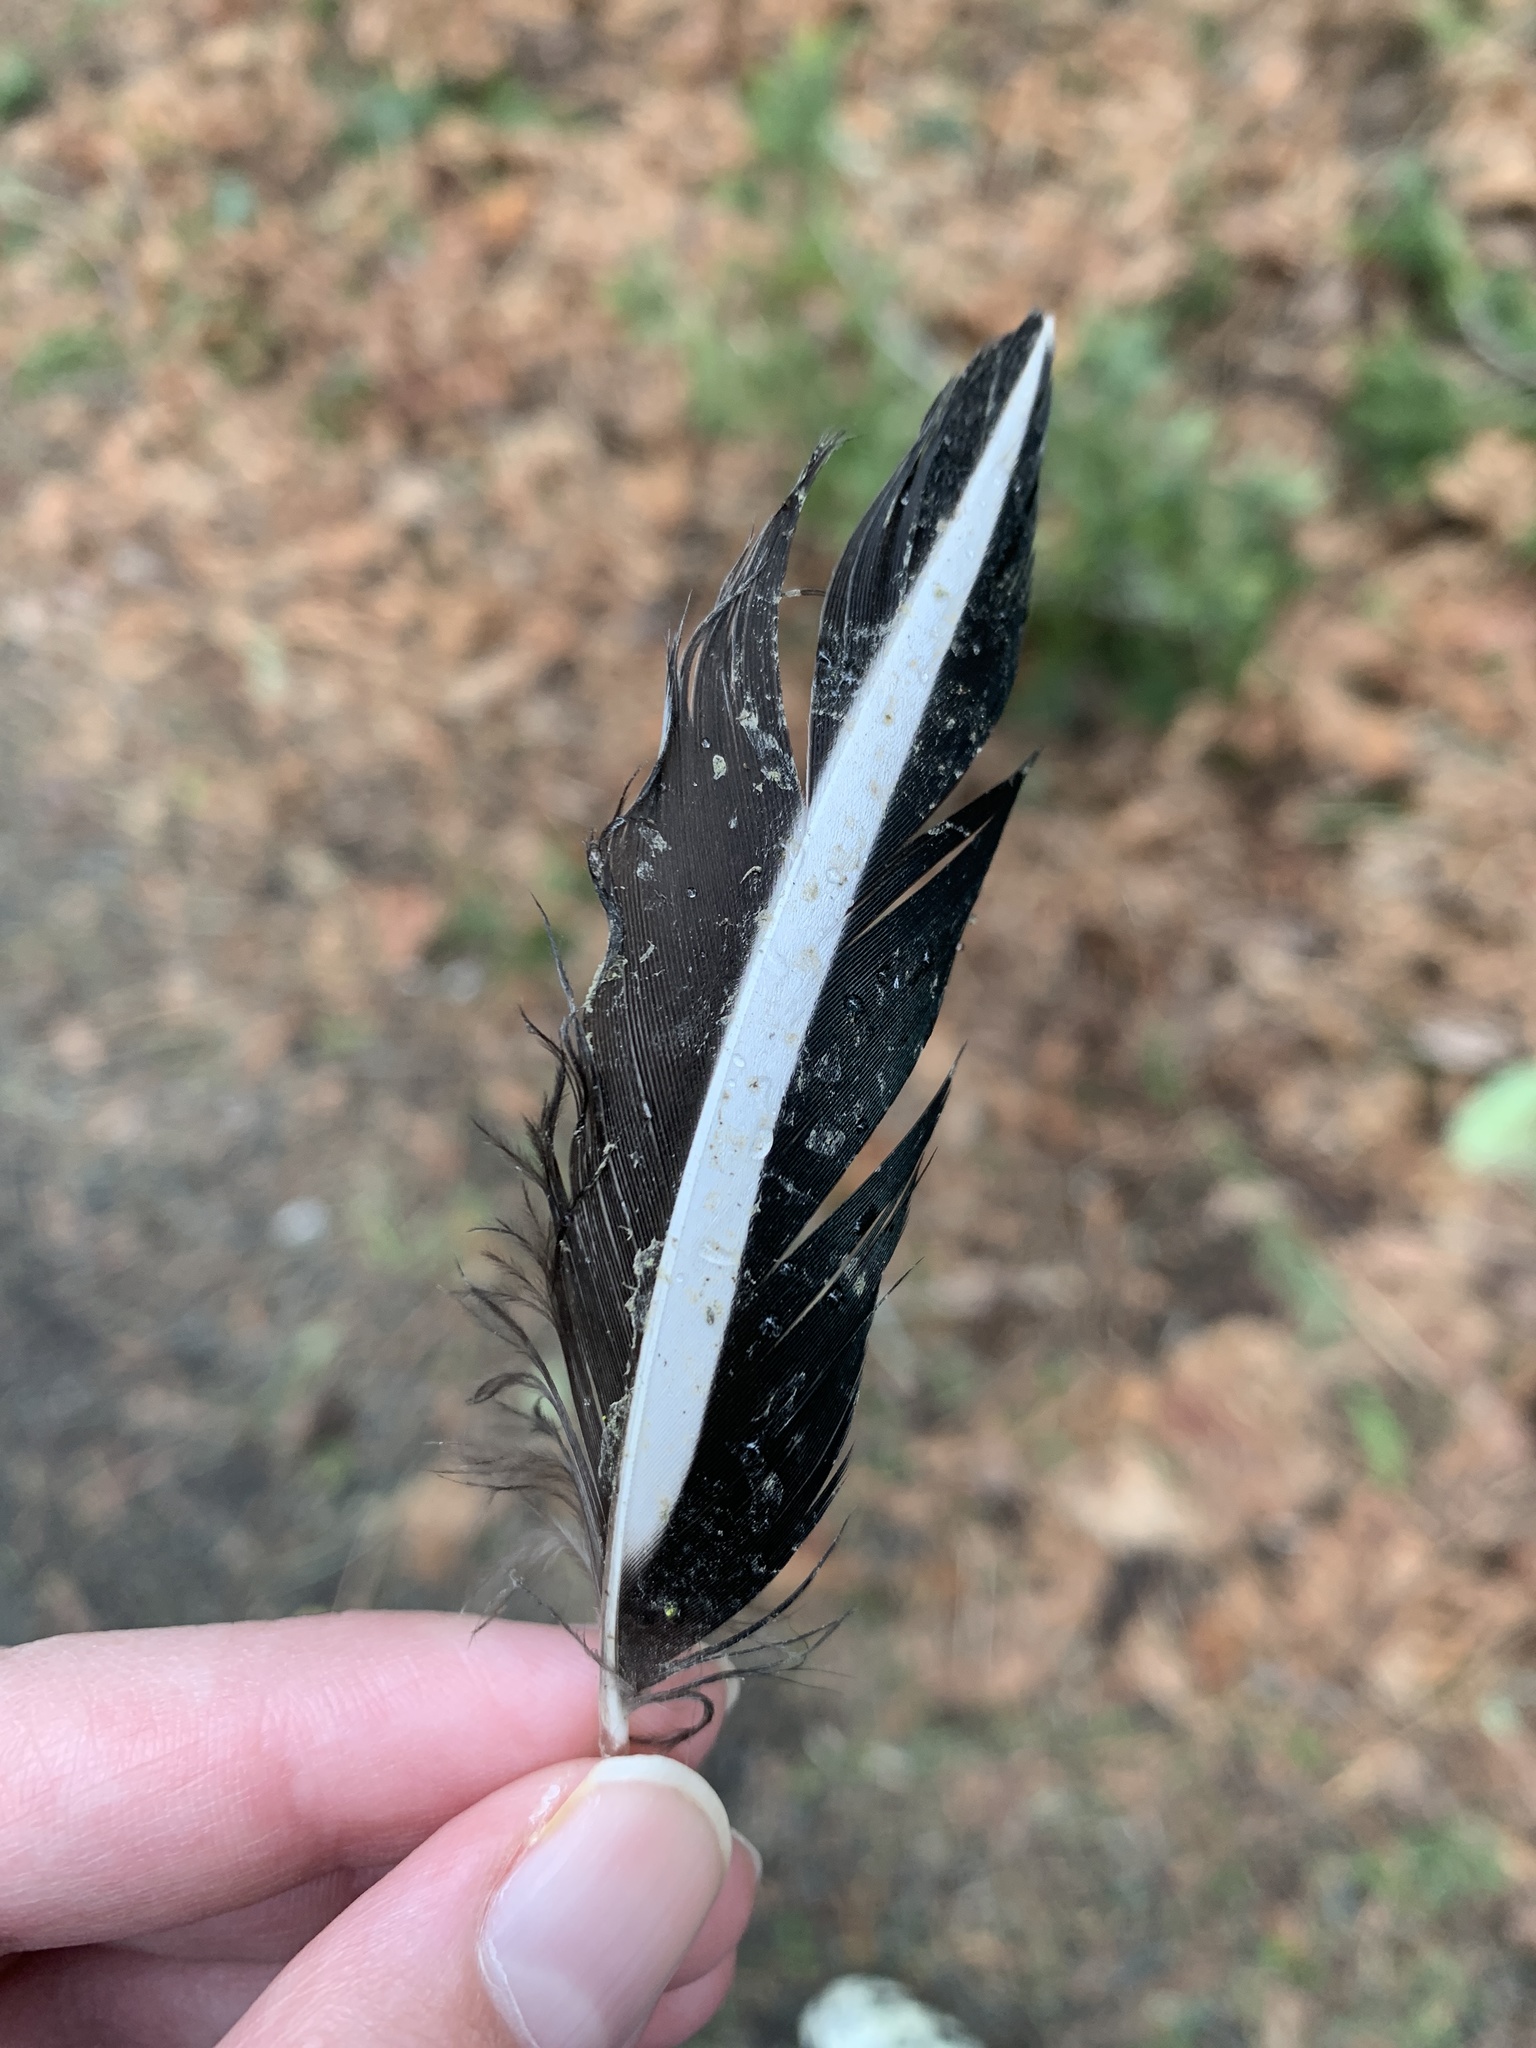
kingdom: Animalia
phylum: Chordata
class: Aves
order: Anseriformes
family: Anatidae
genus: Lophodytes
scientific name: Lophodytes cucullatus
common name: Hooded merganser
